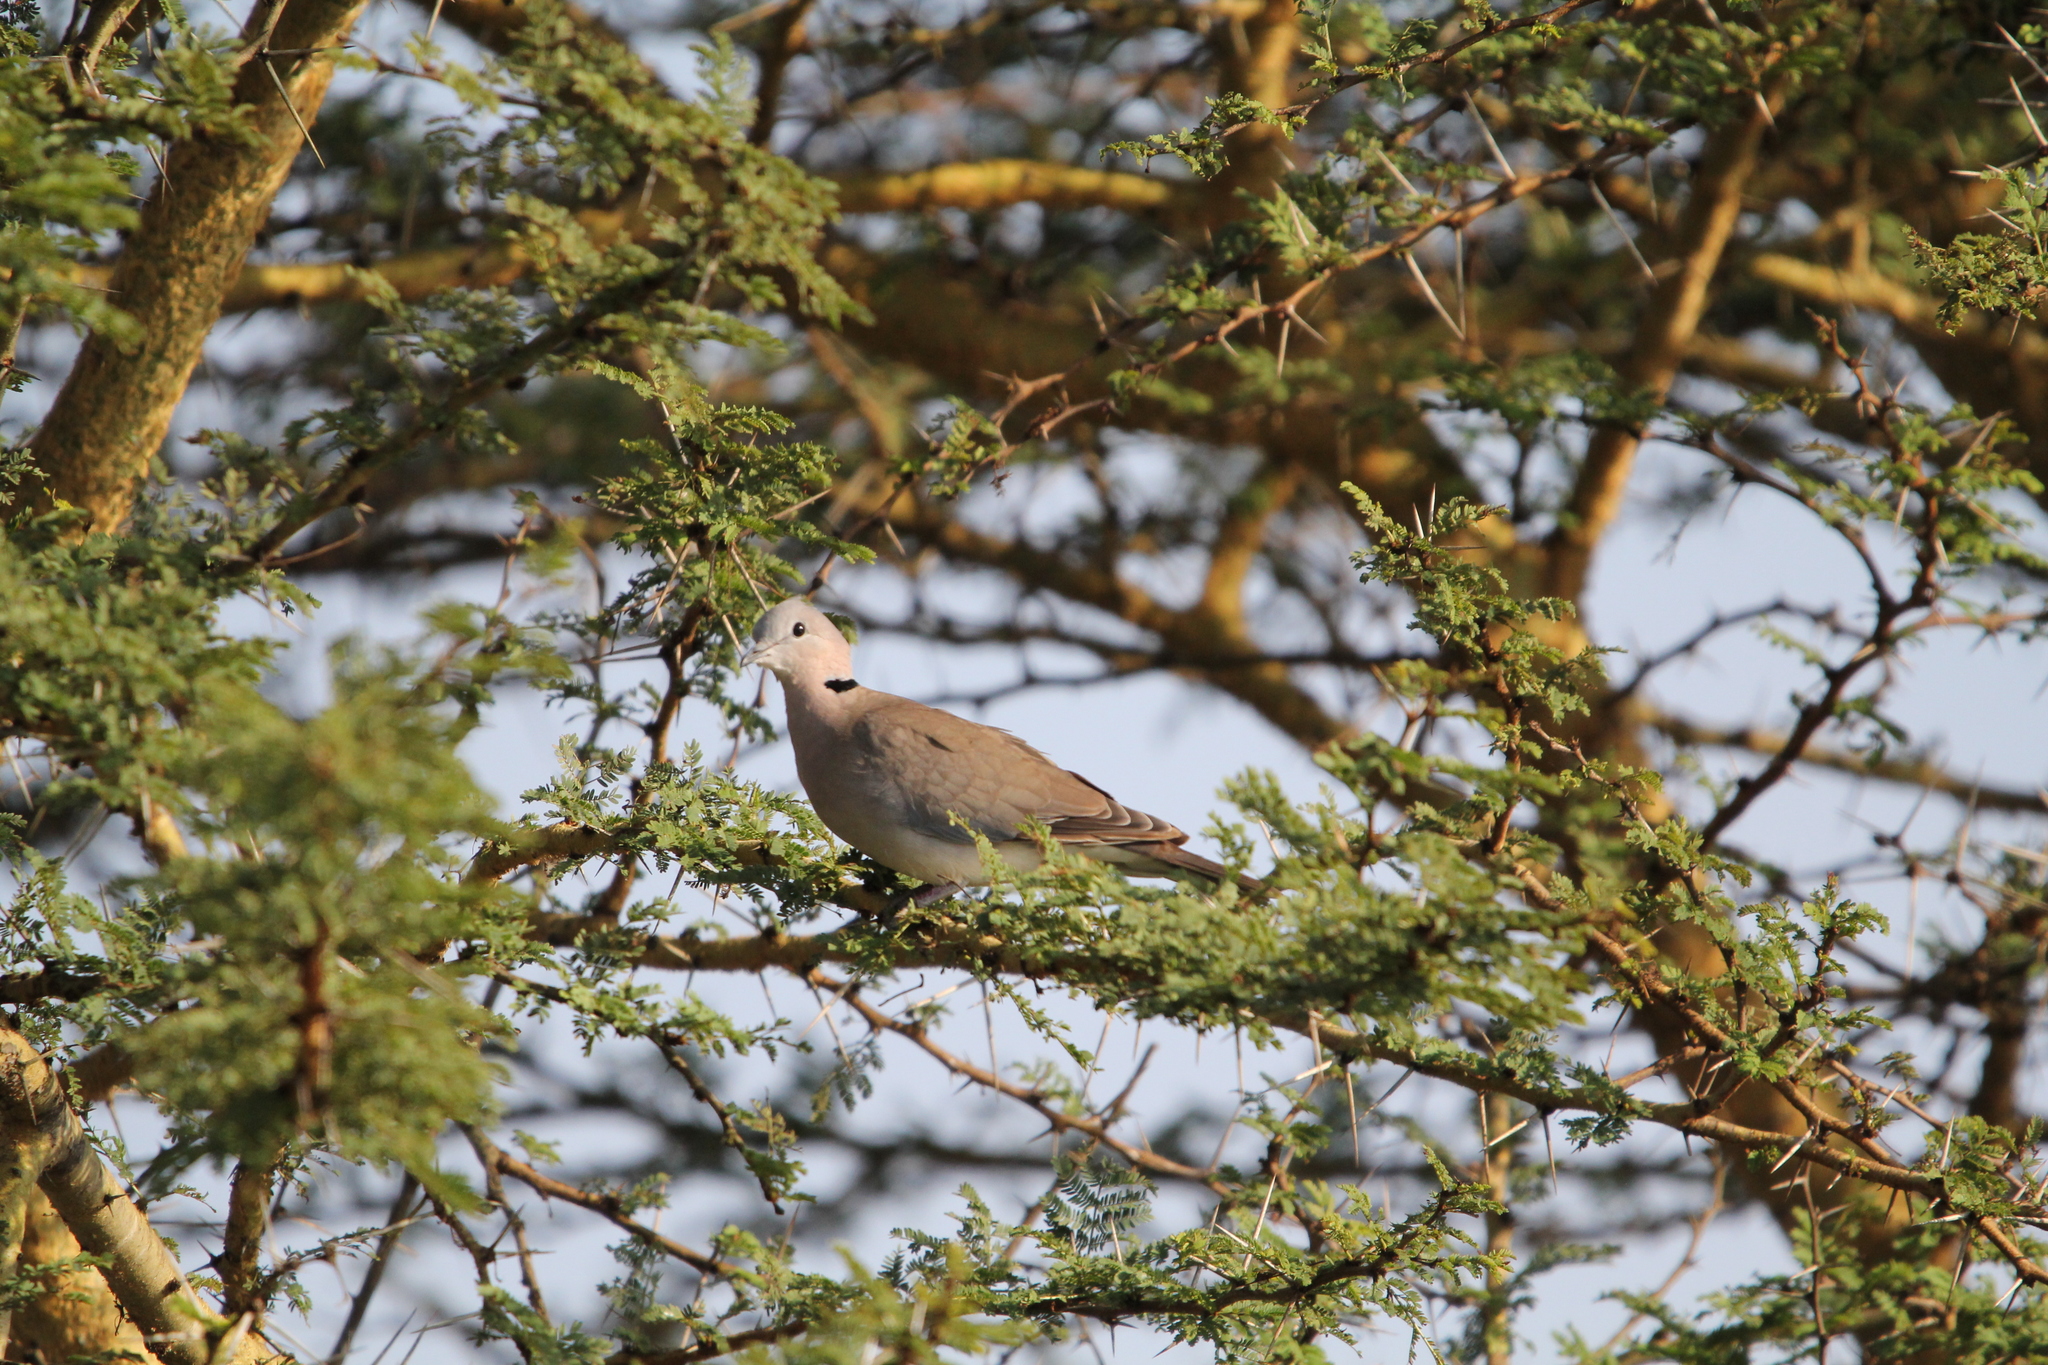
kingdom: Animalia
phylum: Chordata
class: Aves
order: Columbiformes
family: Columbidae
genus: Streptopelia
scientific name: Streptopelia capicola
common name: Ring-necked dove
